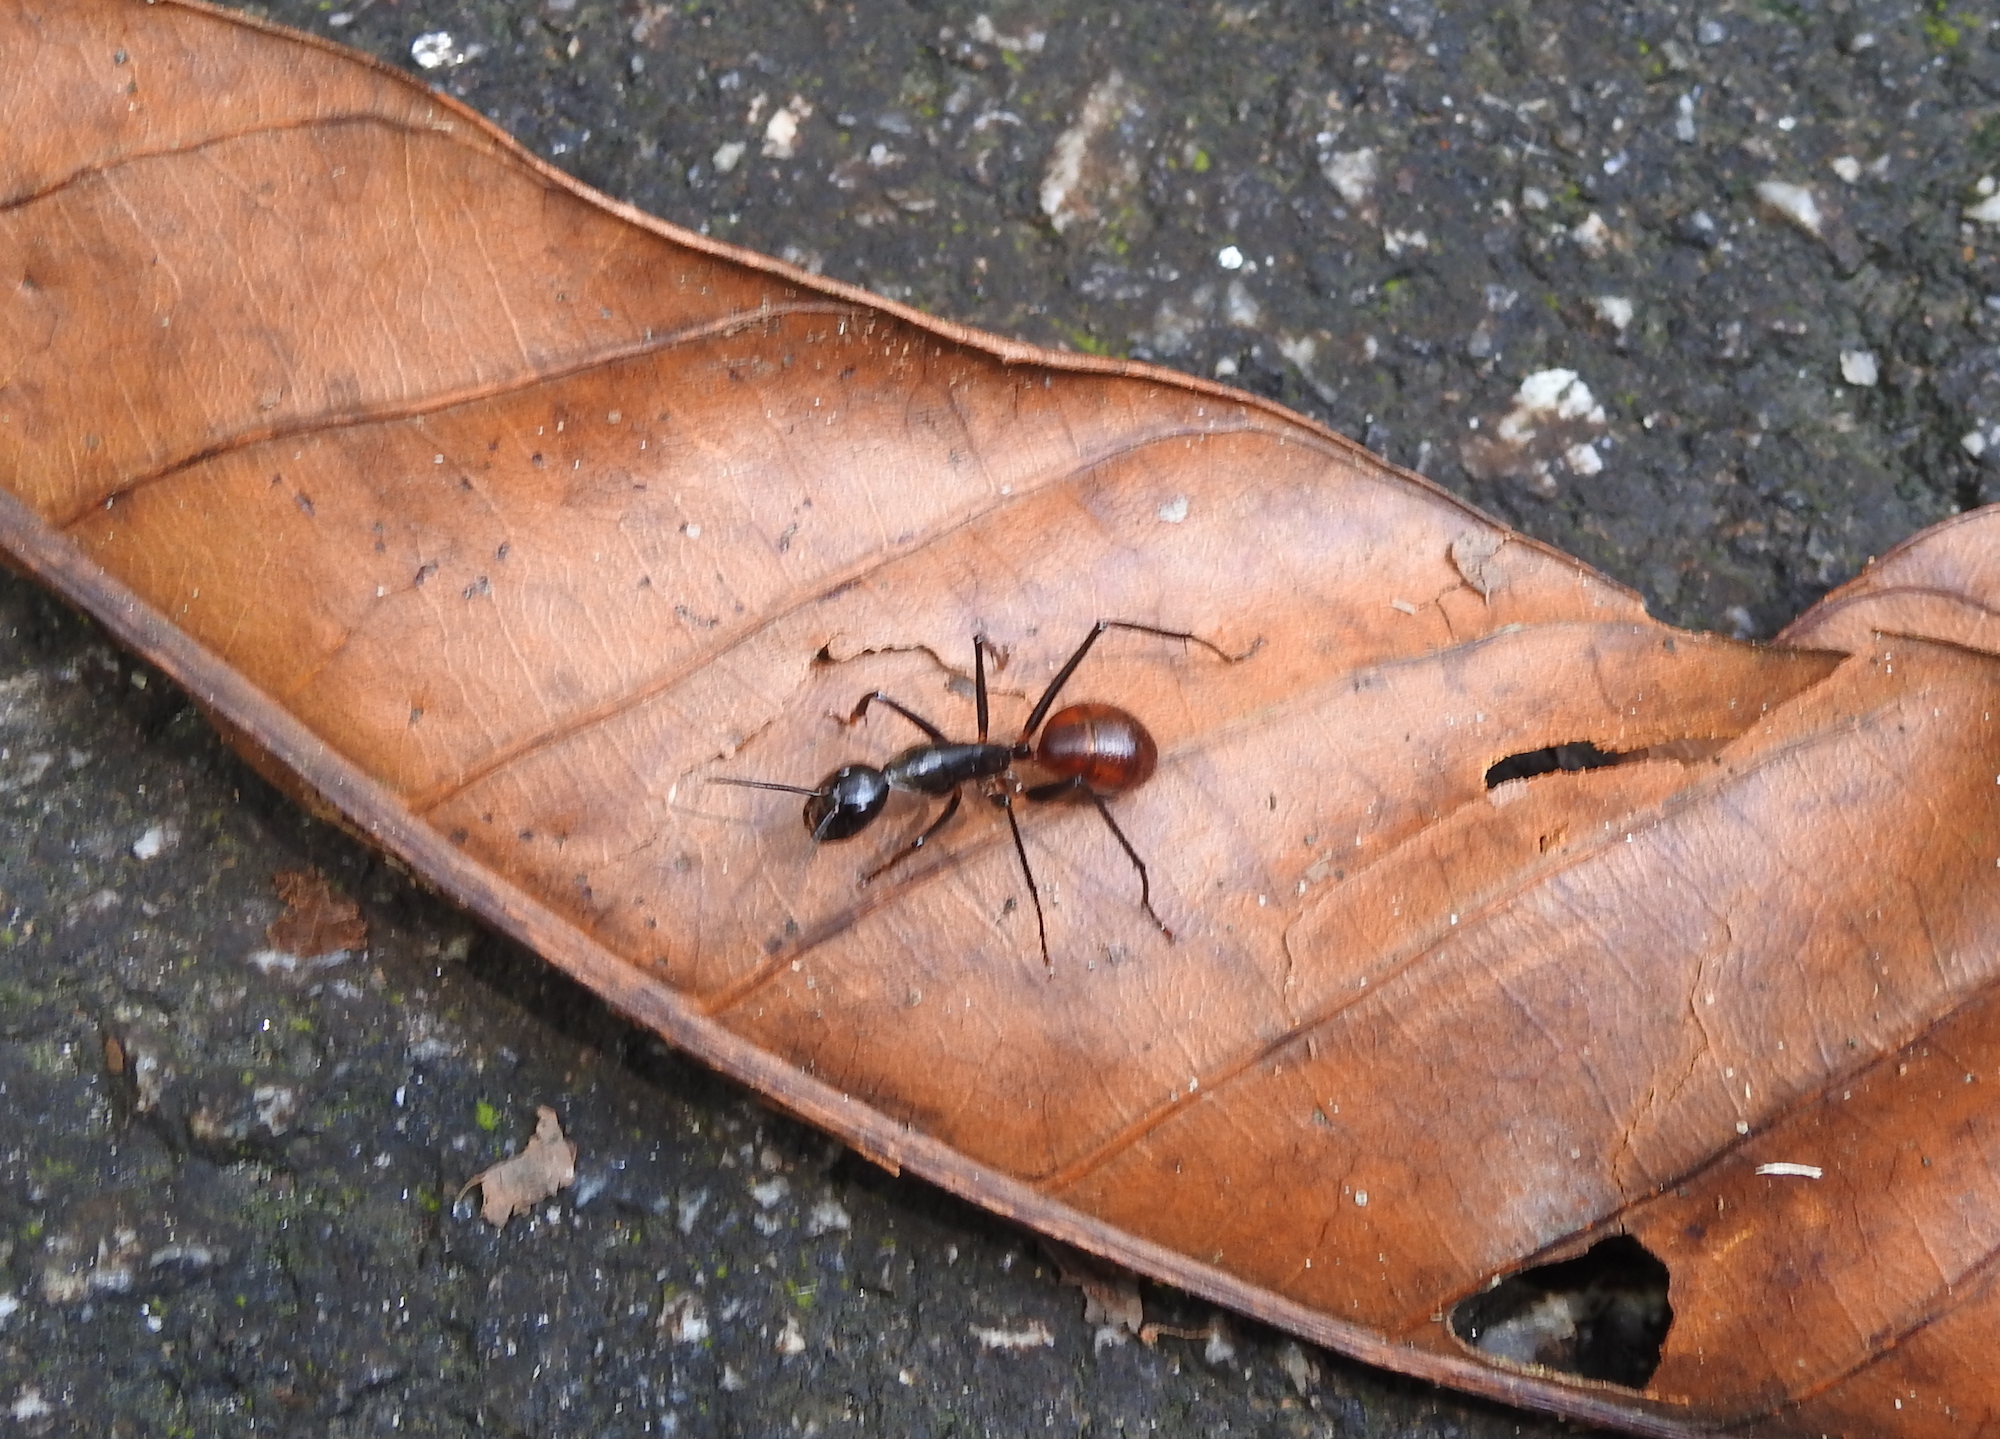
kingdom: Animalia
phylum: Arthropoda
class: Insecta
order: Hymenoptera
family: Formicidae
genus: Dinomyrmex
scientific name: Dinomyrmex
